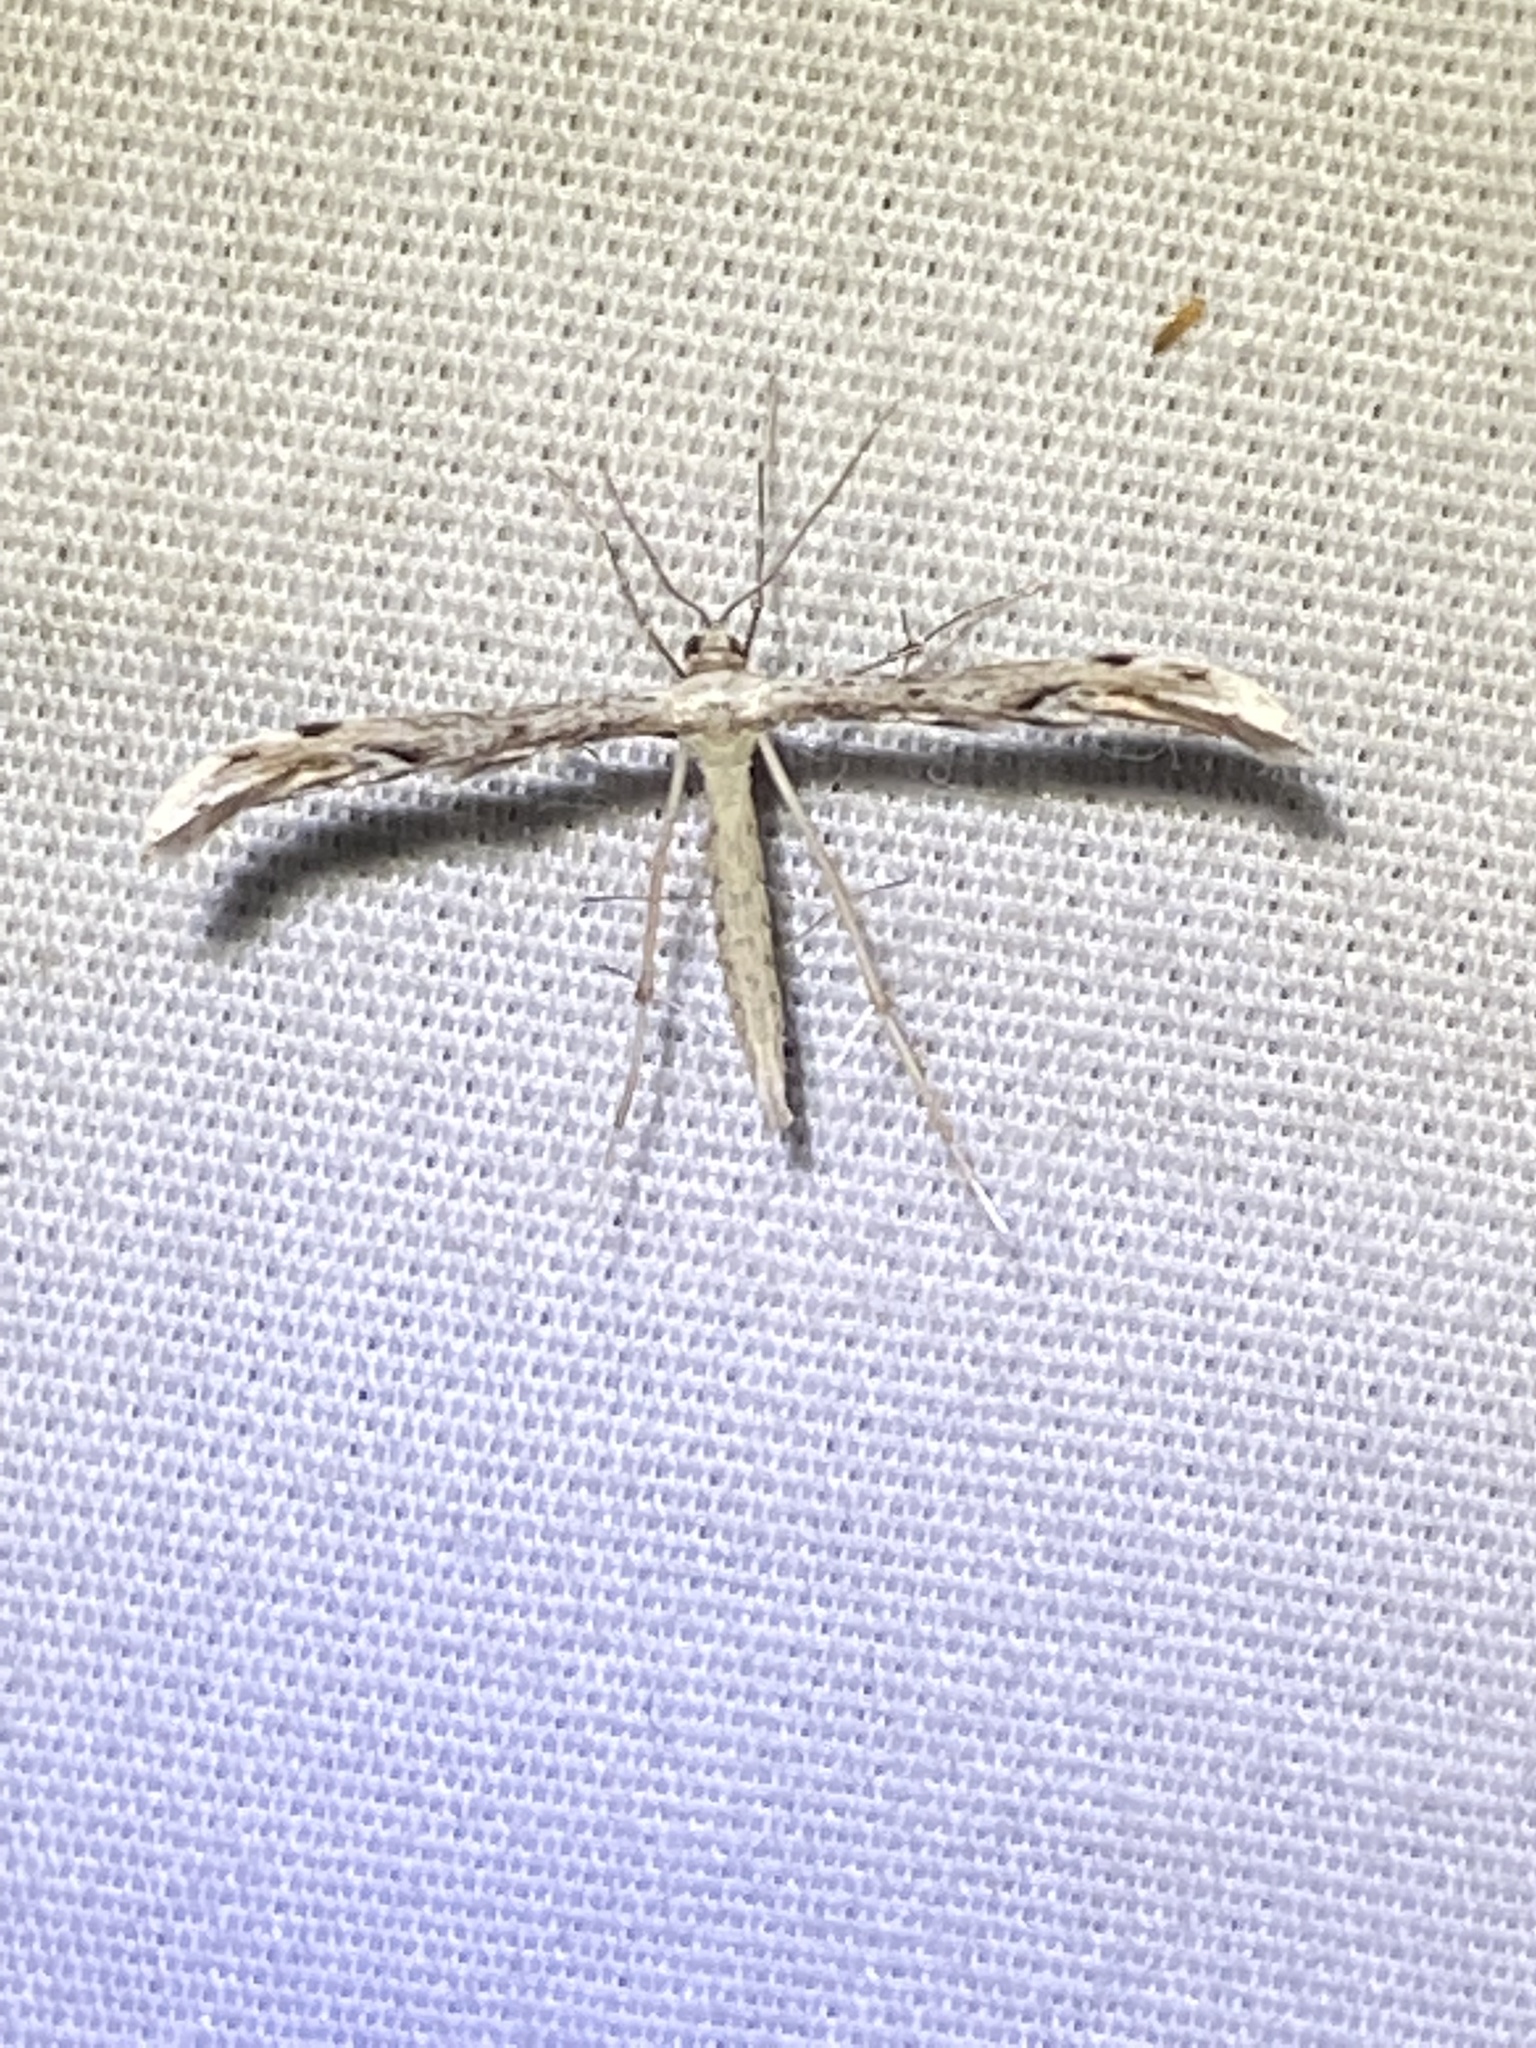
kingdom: Animalia
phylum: Arthropoda
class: Insecta
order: Lepidoptera
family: Pterophoridae
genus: Pselnophorus
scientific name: Pselnophorus belfragei
